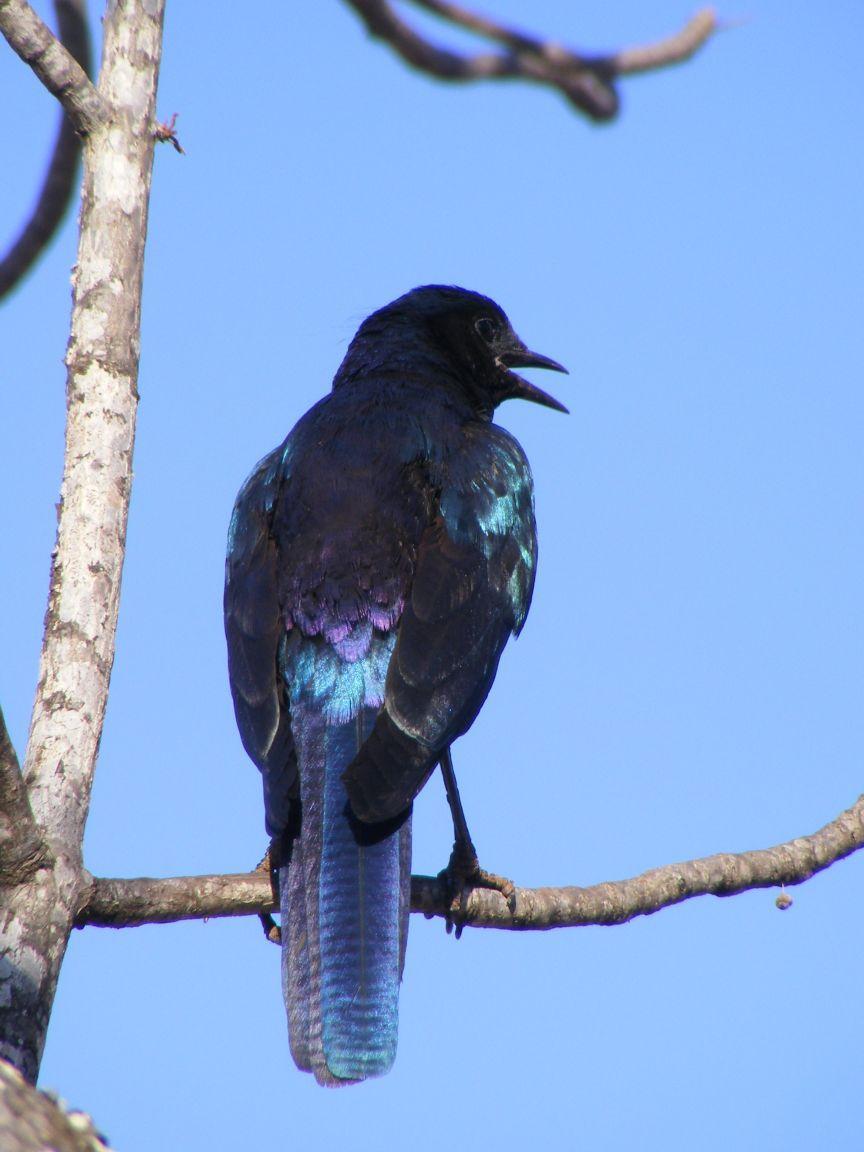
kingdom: Animalia
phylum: Chordata
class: Aves
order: Passeriformes
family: Sturnidae
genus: Lamprotornis
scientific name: Lamprotornis australis
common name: Burchell's starling
